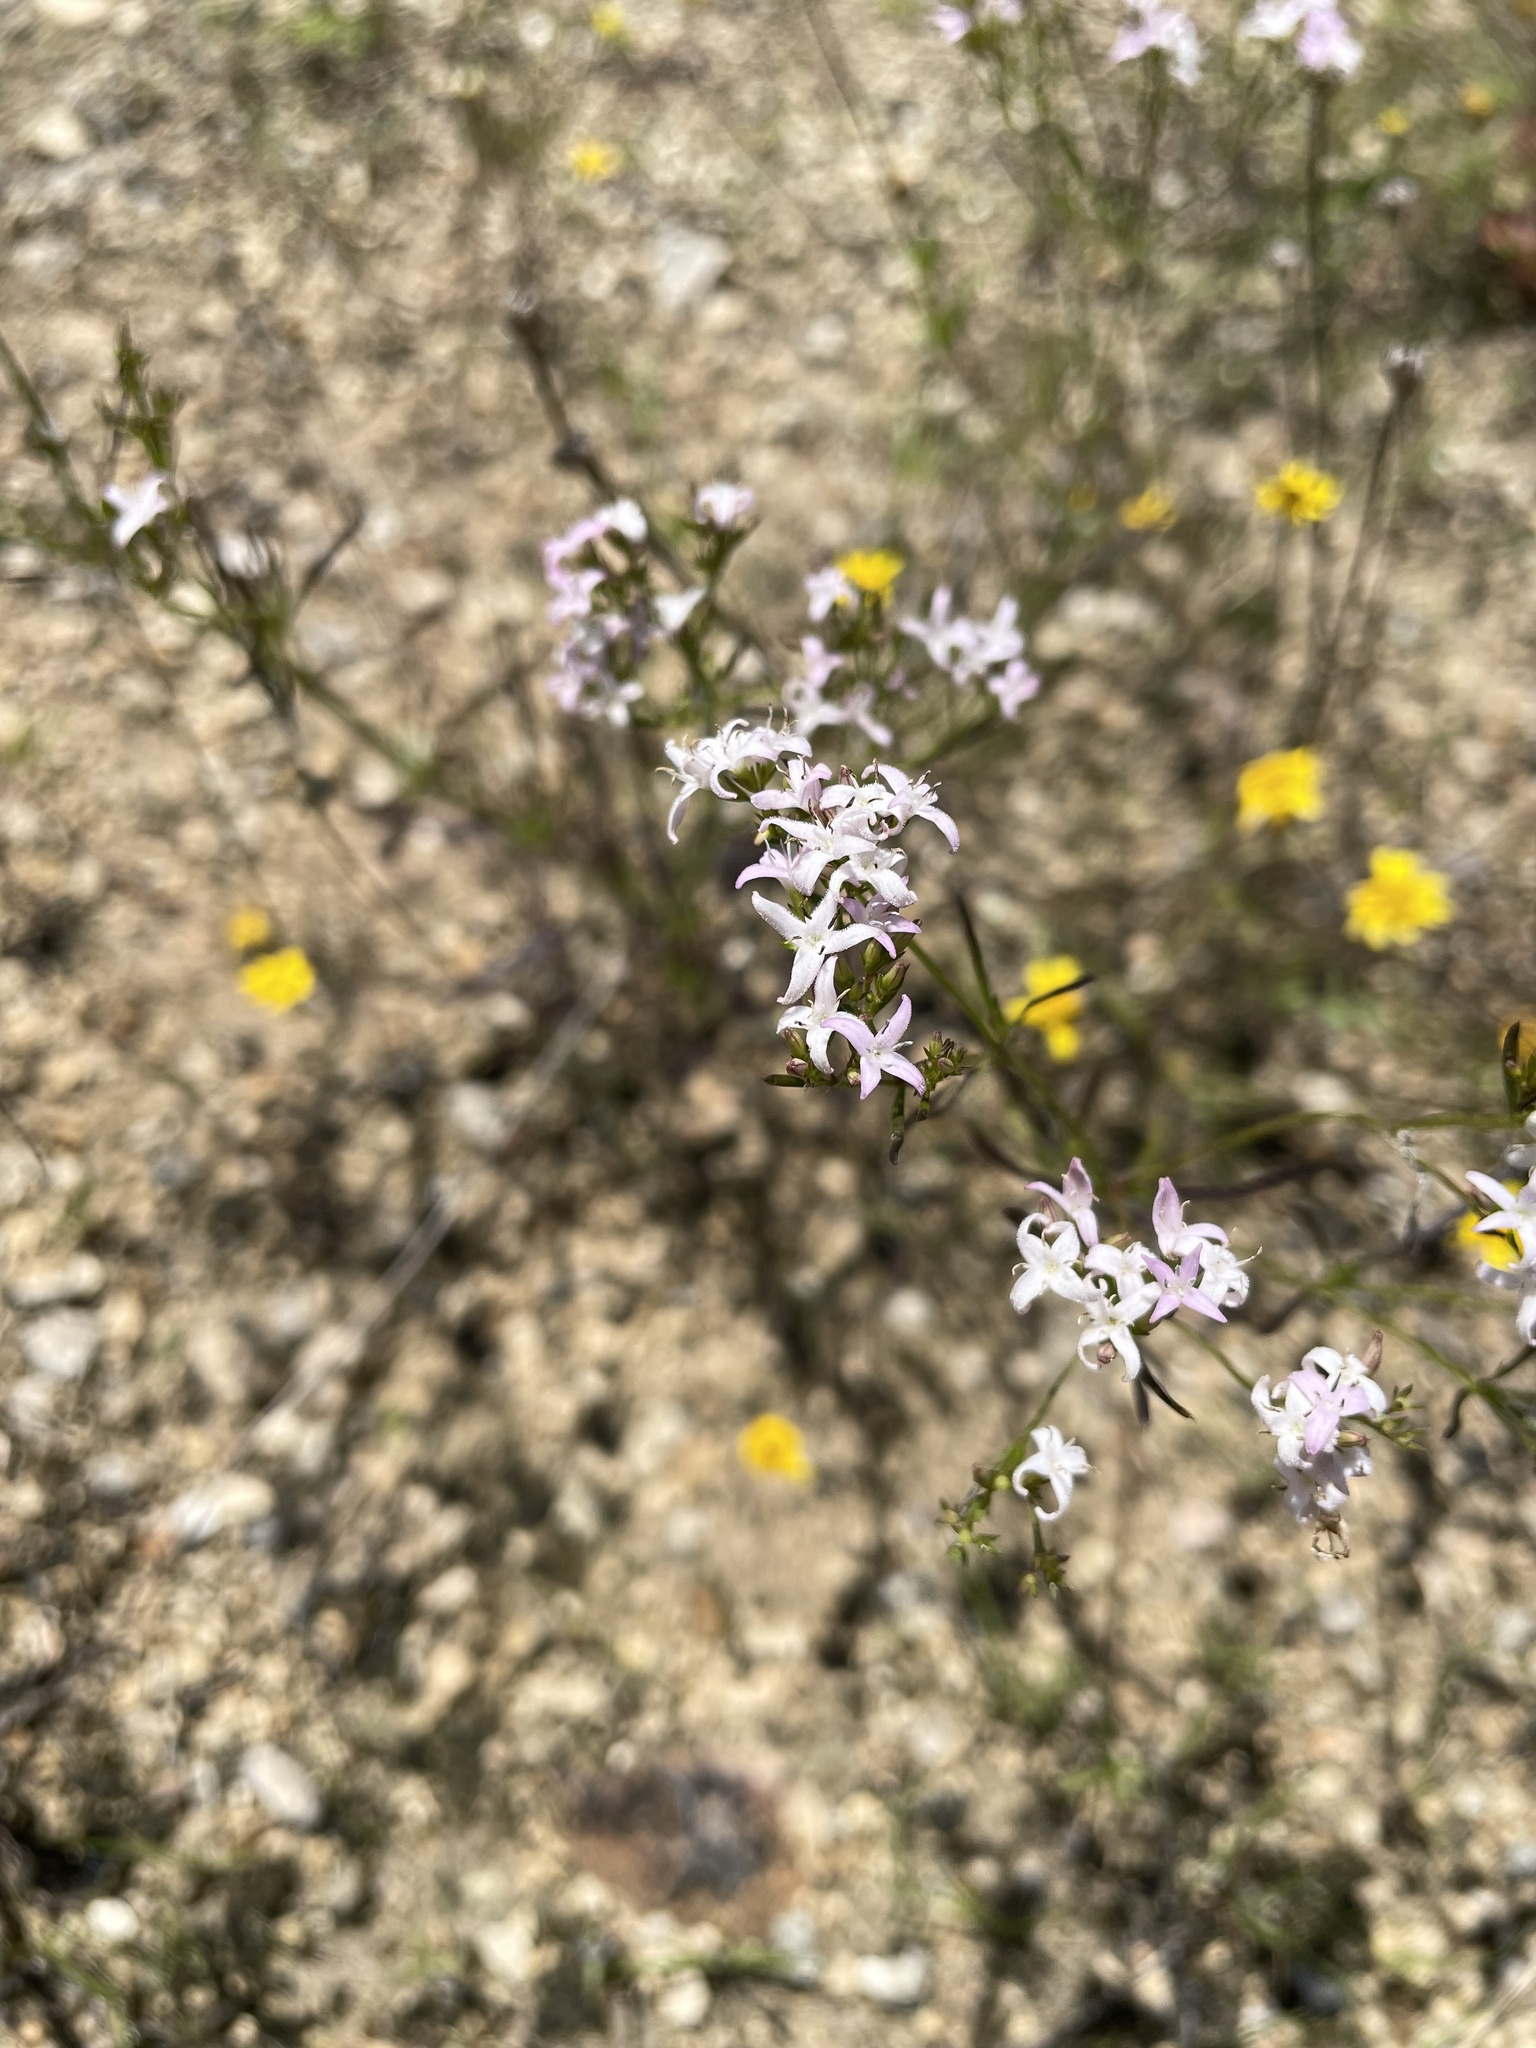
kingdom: Plantae
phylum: Tracheophyta
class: Magnoliopsida
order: Gentianales
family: Rubiaceae
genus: Stenaria
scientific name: Stenaria nigricans
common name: Diamondflowers
